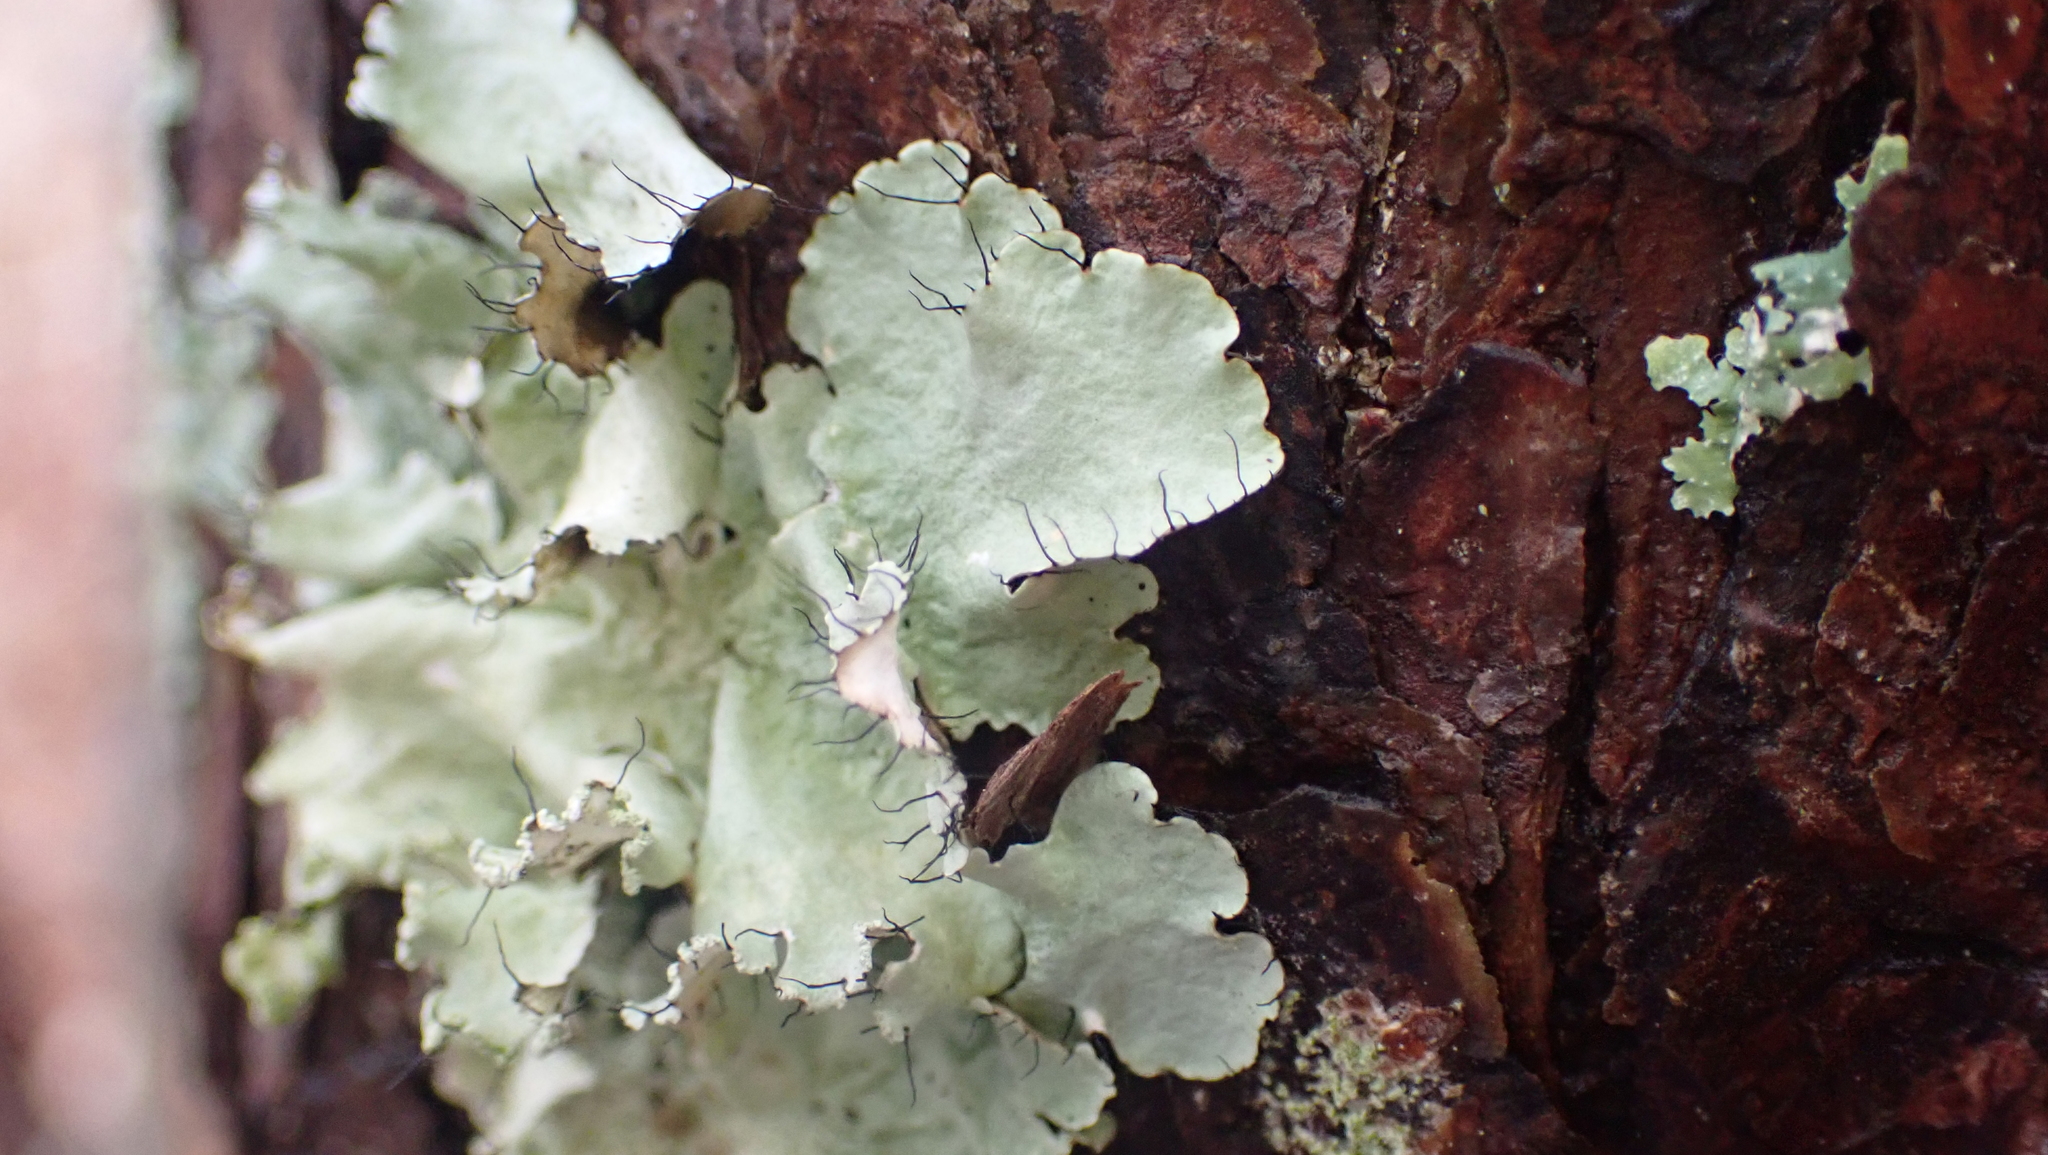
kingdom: Fungi
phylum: Ascomycota
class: Lecanoromycetes
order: Lecanorales
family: Parmeliaceae
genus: Parmotrema
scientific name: Parmotrema hypotropum
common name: Powdered ruffle lichen
